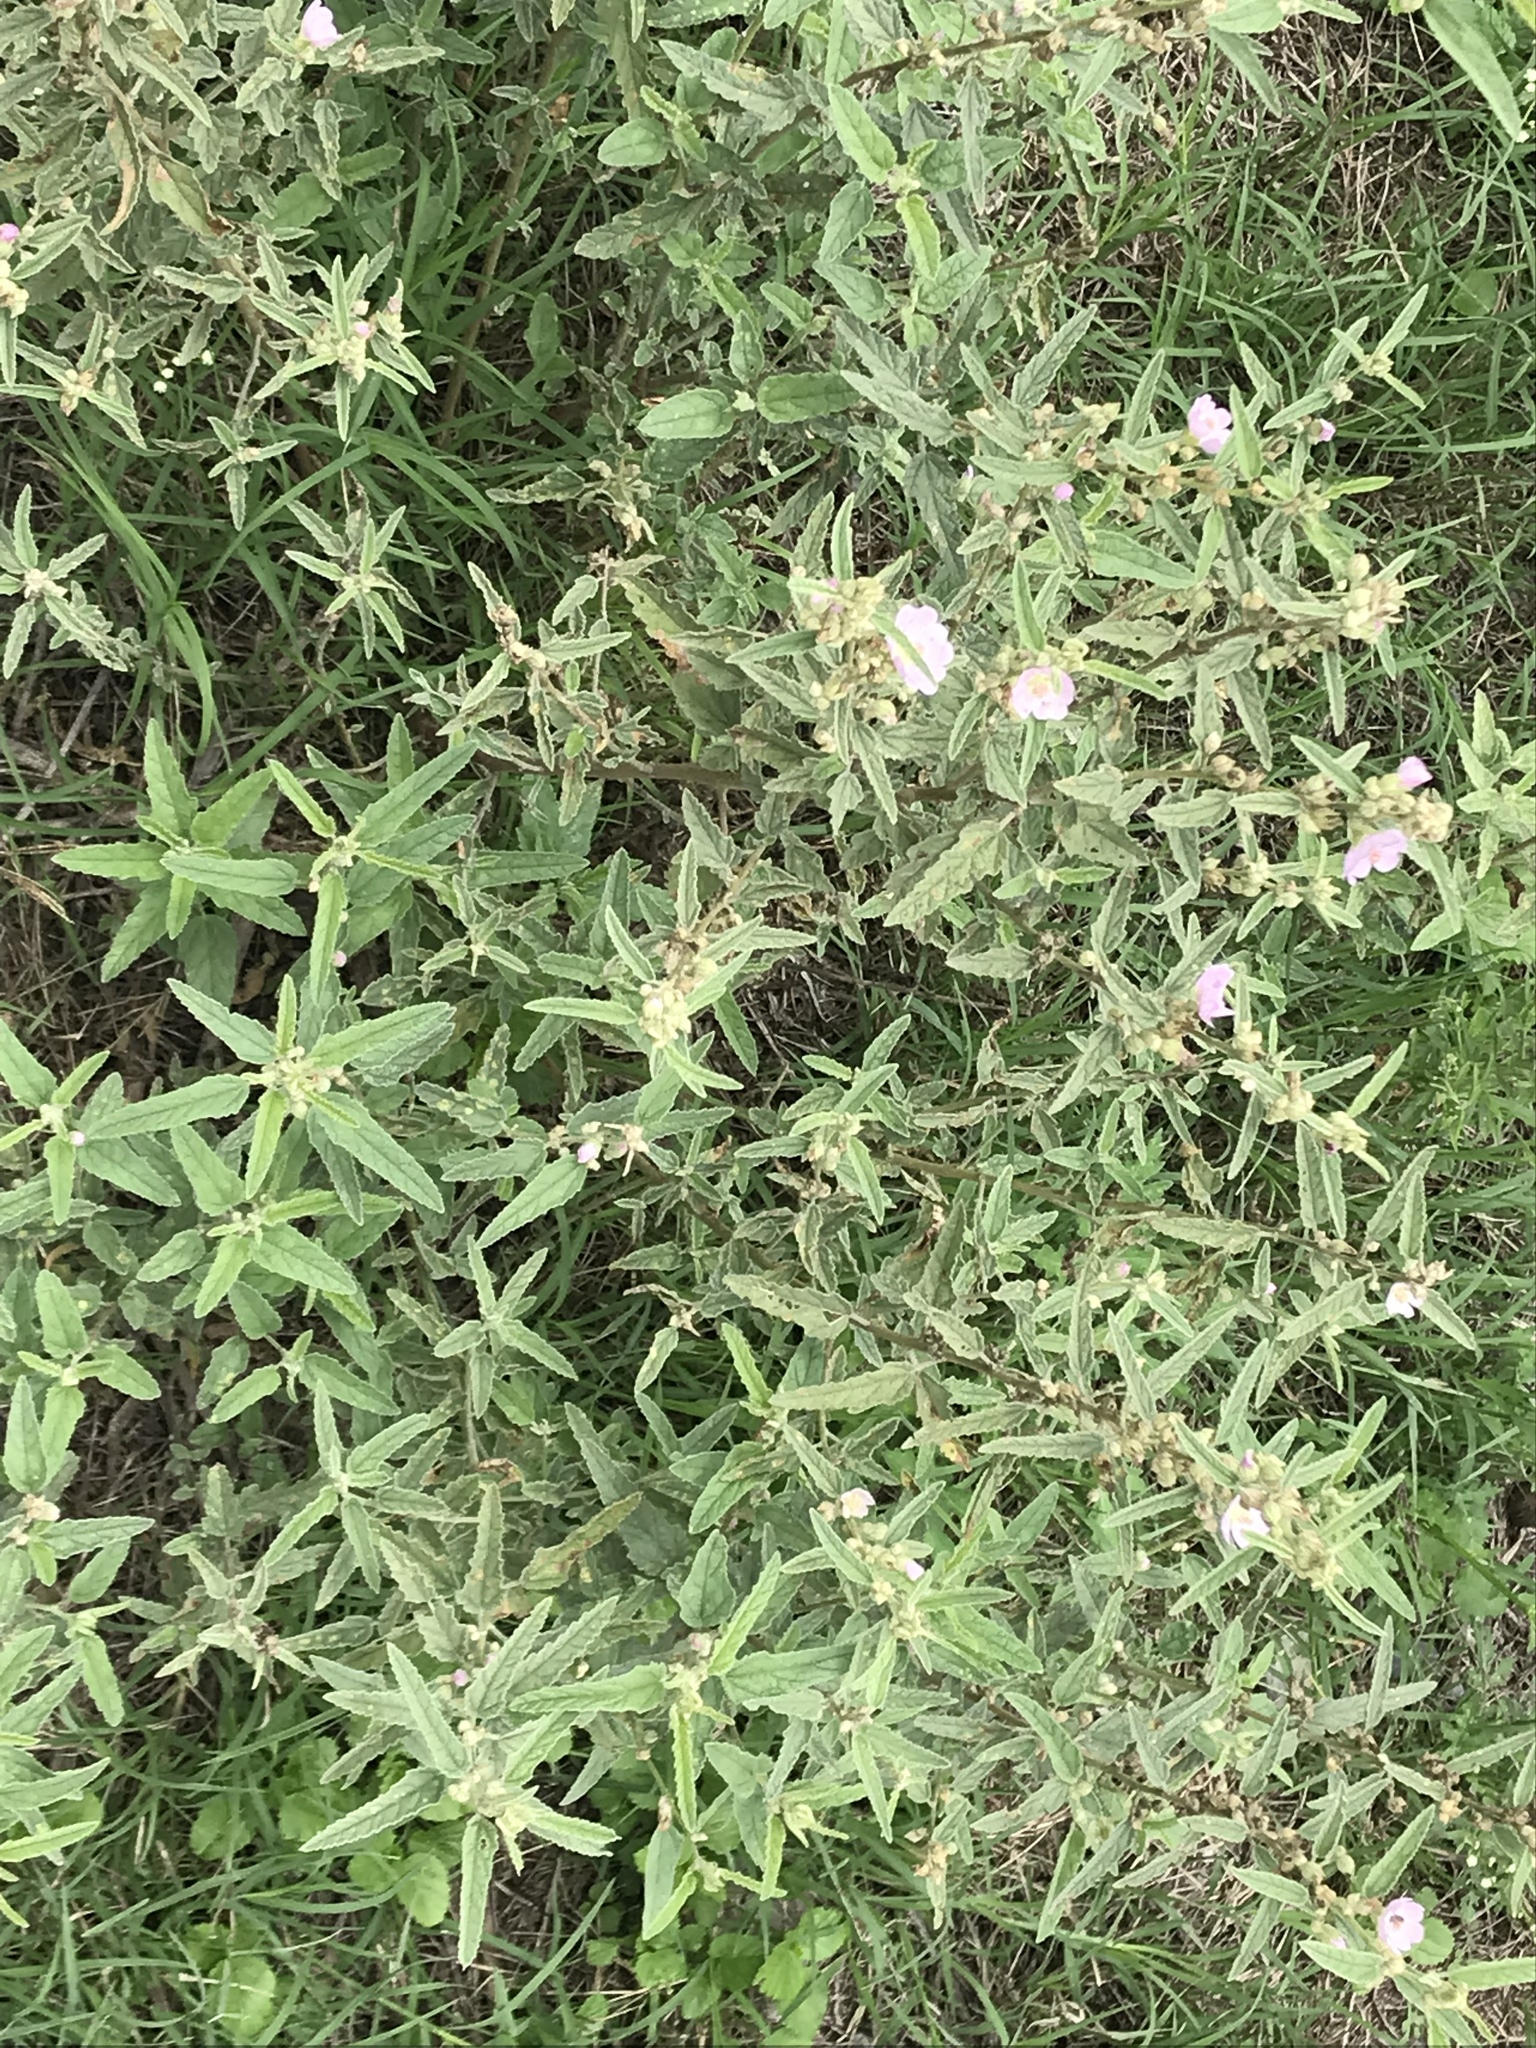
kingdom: Plantae
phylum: Tracheophyta
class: Magnoliopsida
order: Malvales
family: Malvaceae
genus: Sphaeralcea
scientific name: Sphaeralcea angustifolia
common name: Copper globe-mallow
